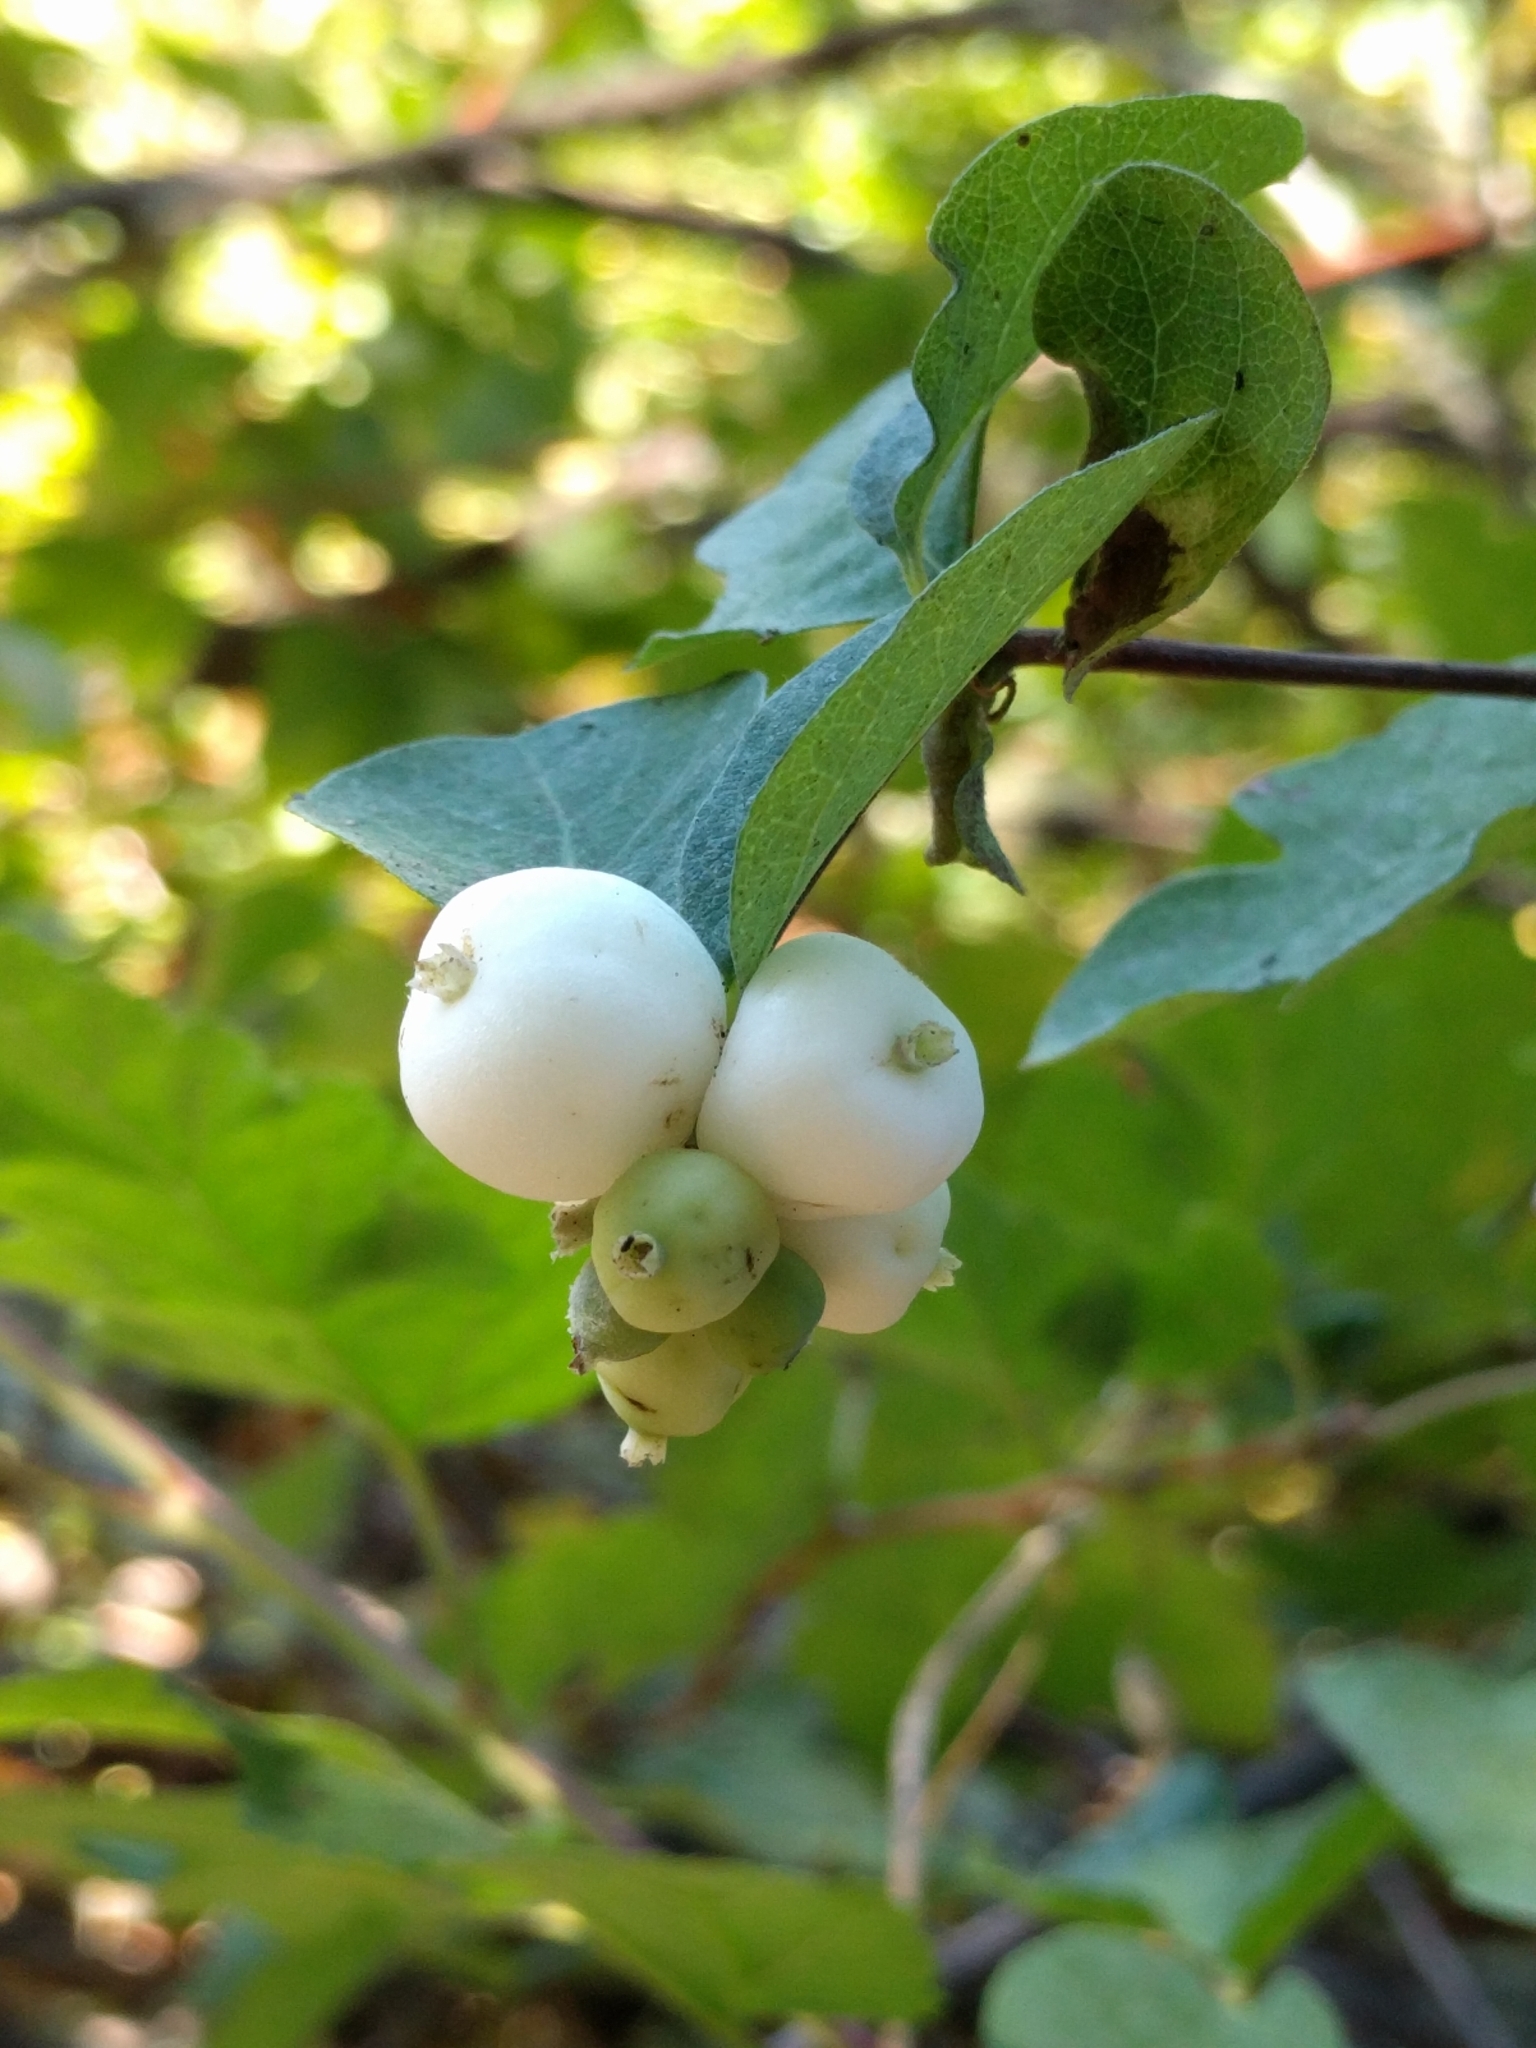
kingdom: Plantae
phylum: Tracheophyta
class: Magnoliopsida
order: Dipsacales
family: Caprifoliaceae
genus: Symphoricarpos
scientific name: Symphoricarpos albus
